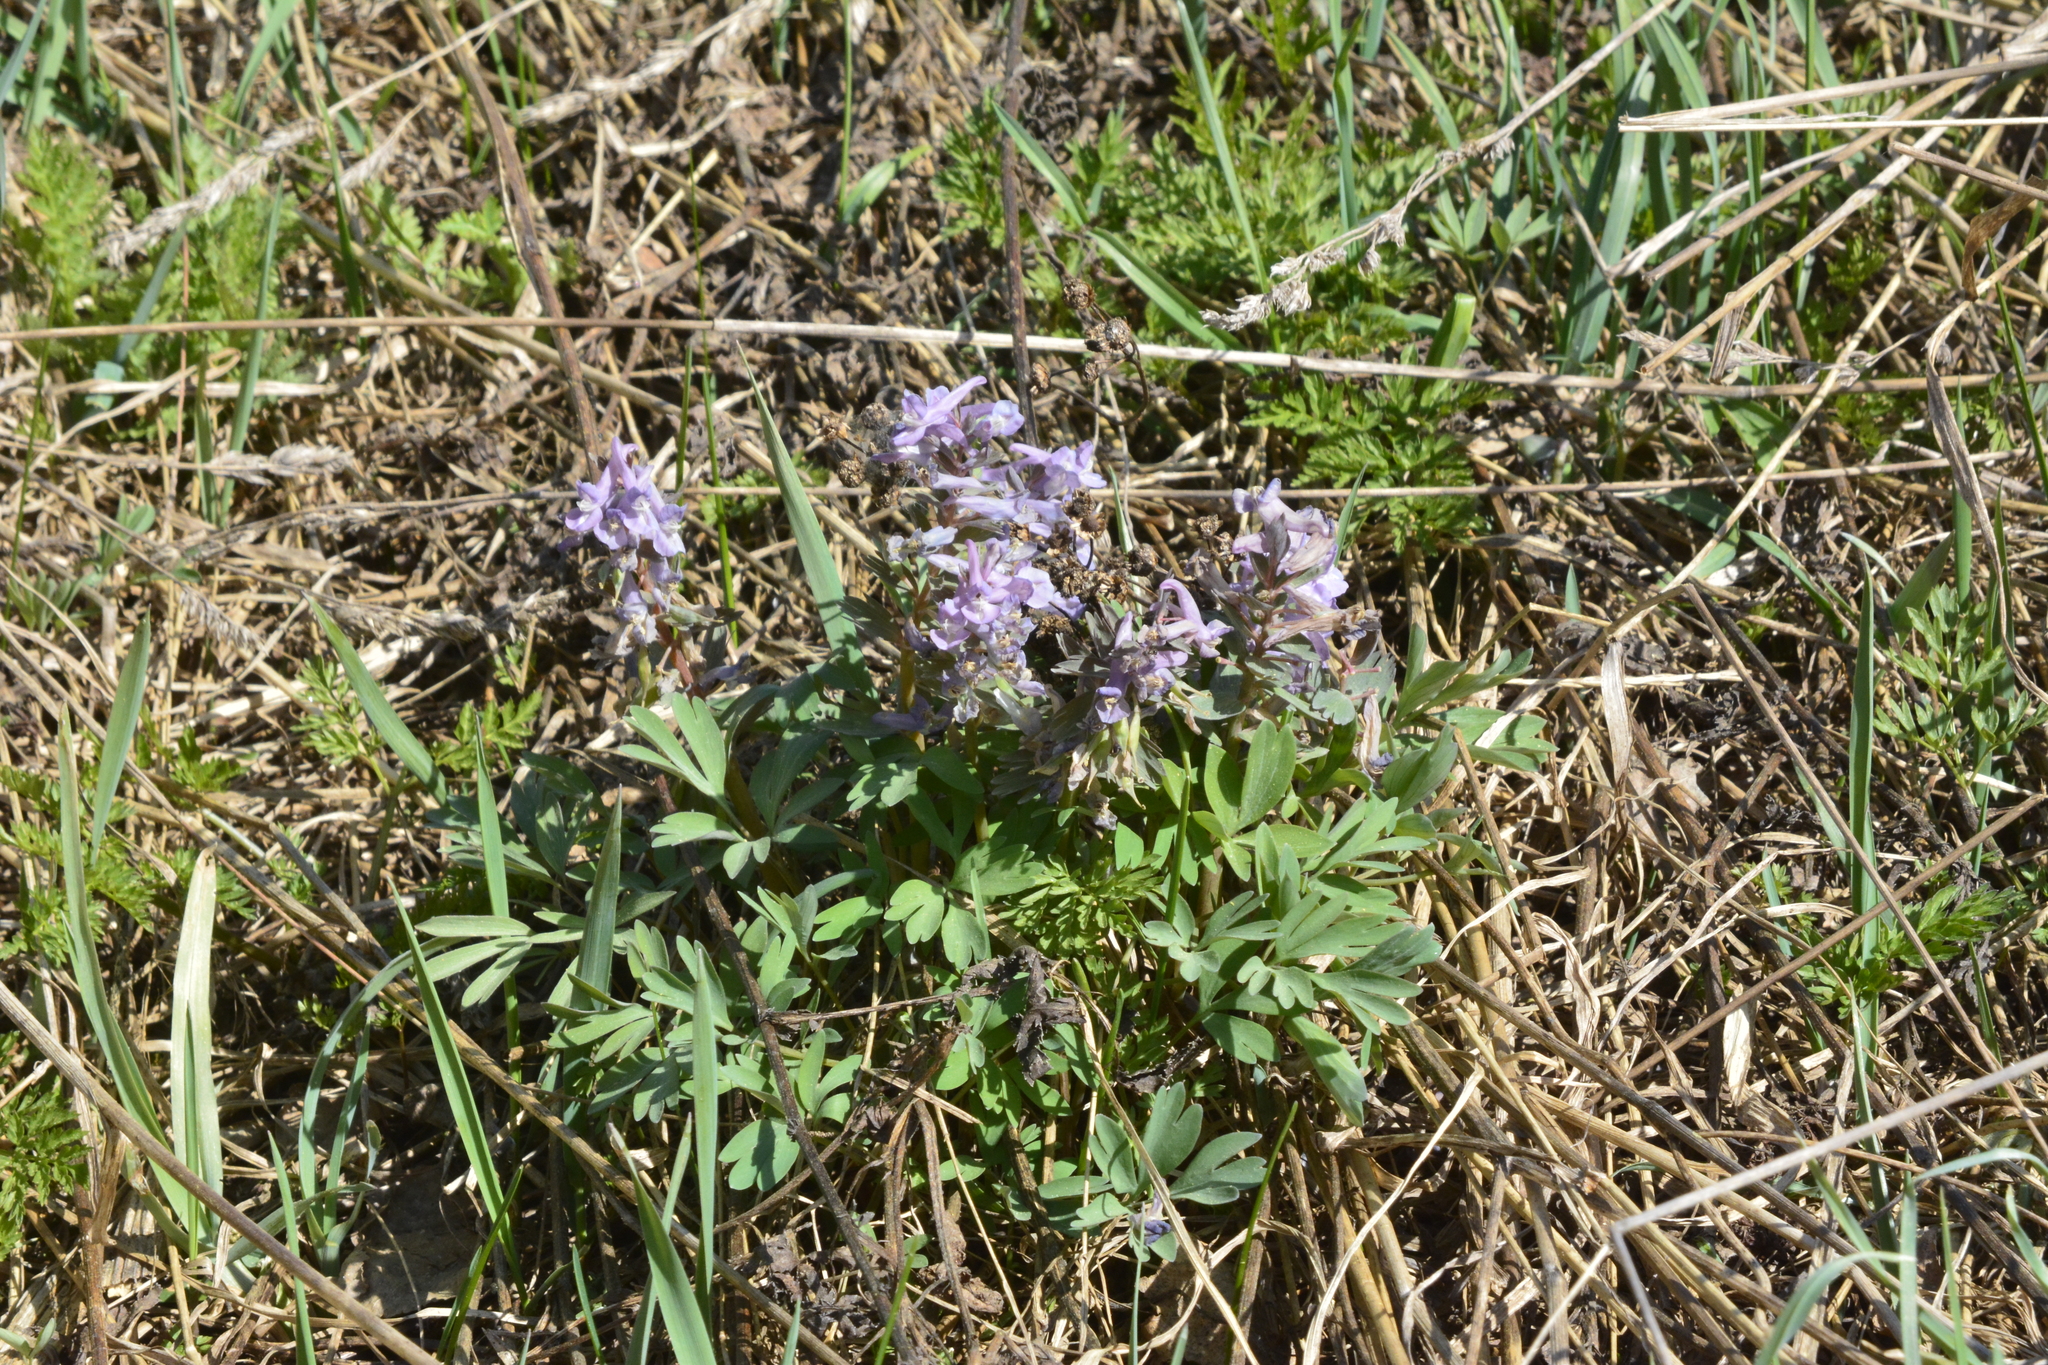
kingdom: Plantae
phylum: Tracheophyta
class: Magnoliopsida
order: Ranunculales
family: Papaveraceae
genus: Corydalis
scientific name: Corydalis solida
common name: Bird-in-a-bush
